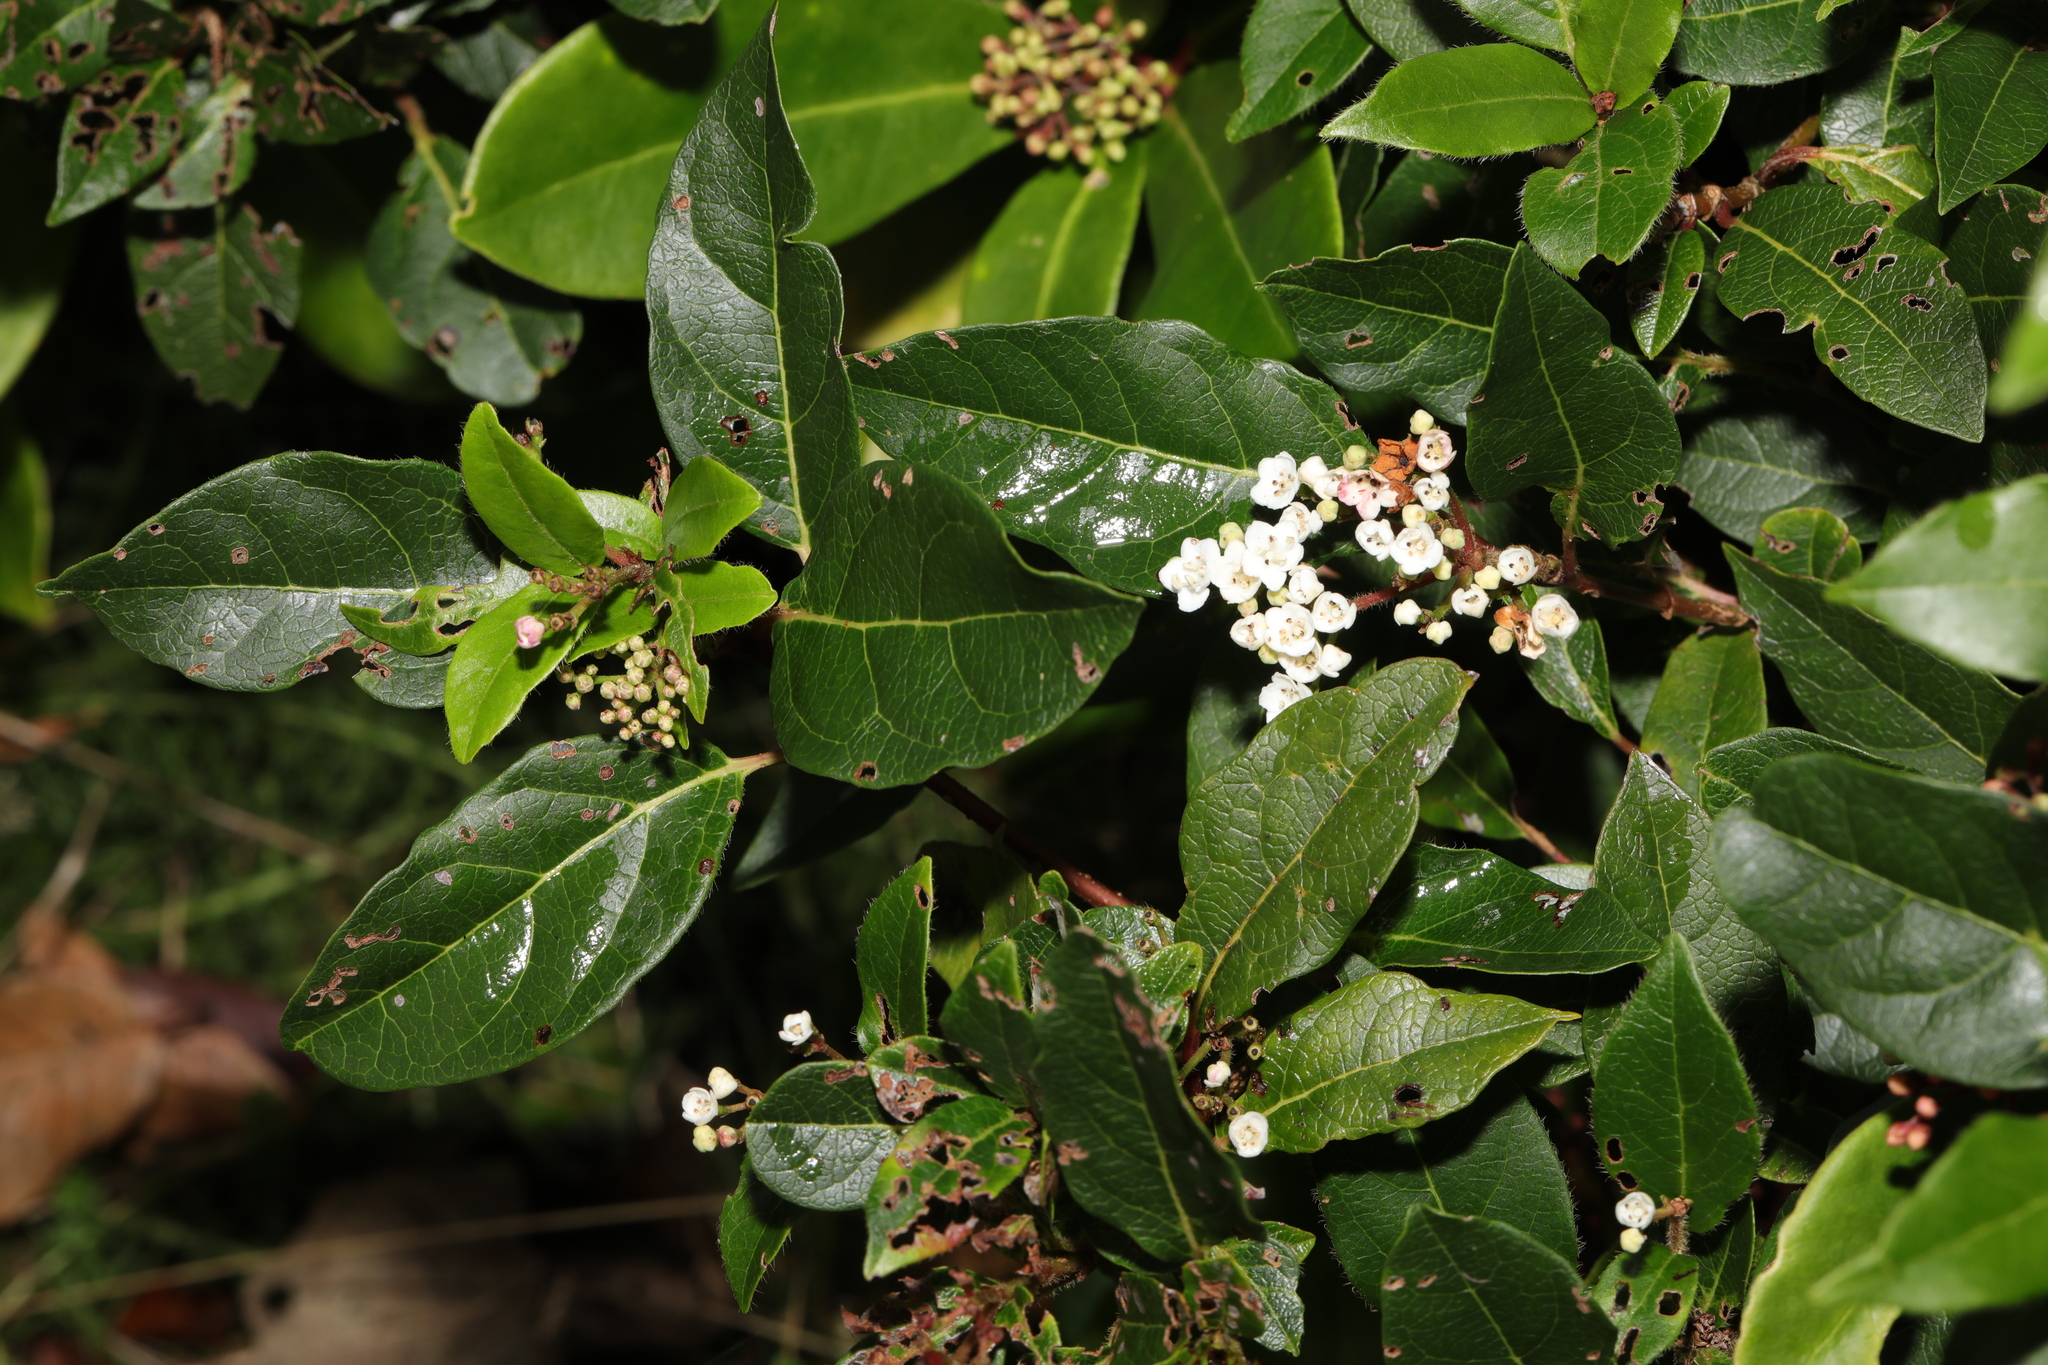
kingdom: Plantae
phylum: Tracheophyta
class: Magnoliopsida
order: Dipsacales
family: Viburnaceae
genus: Viburnum
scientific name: Viburnum tinus
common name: Laurustinus
